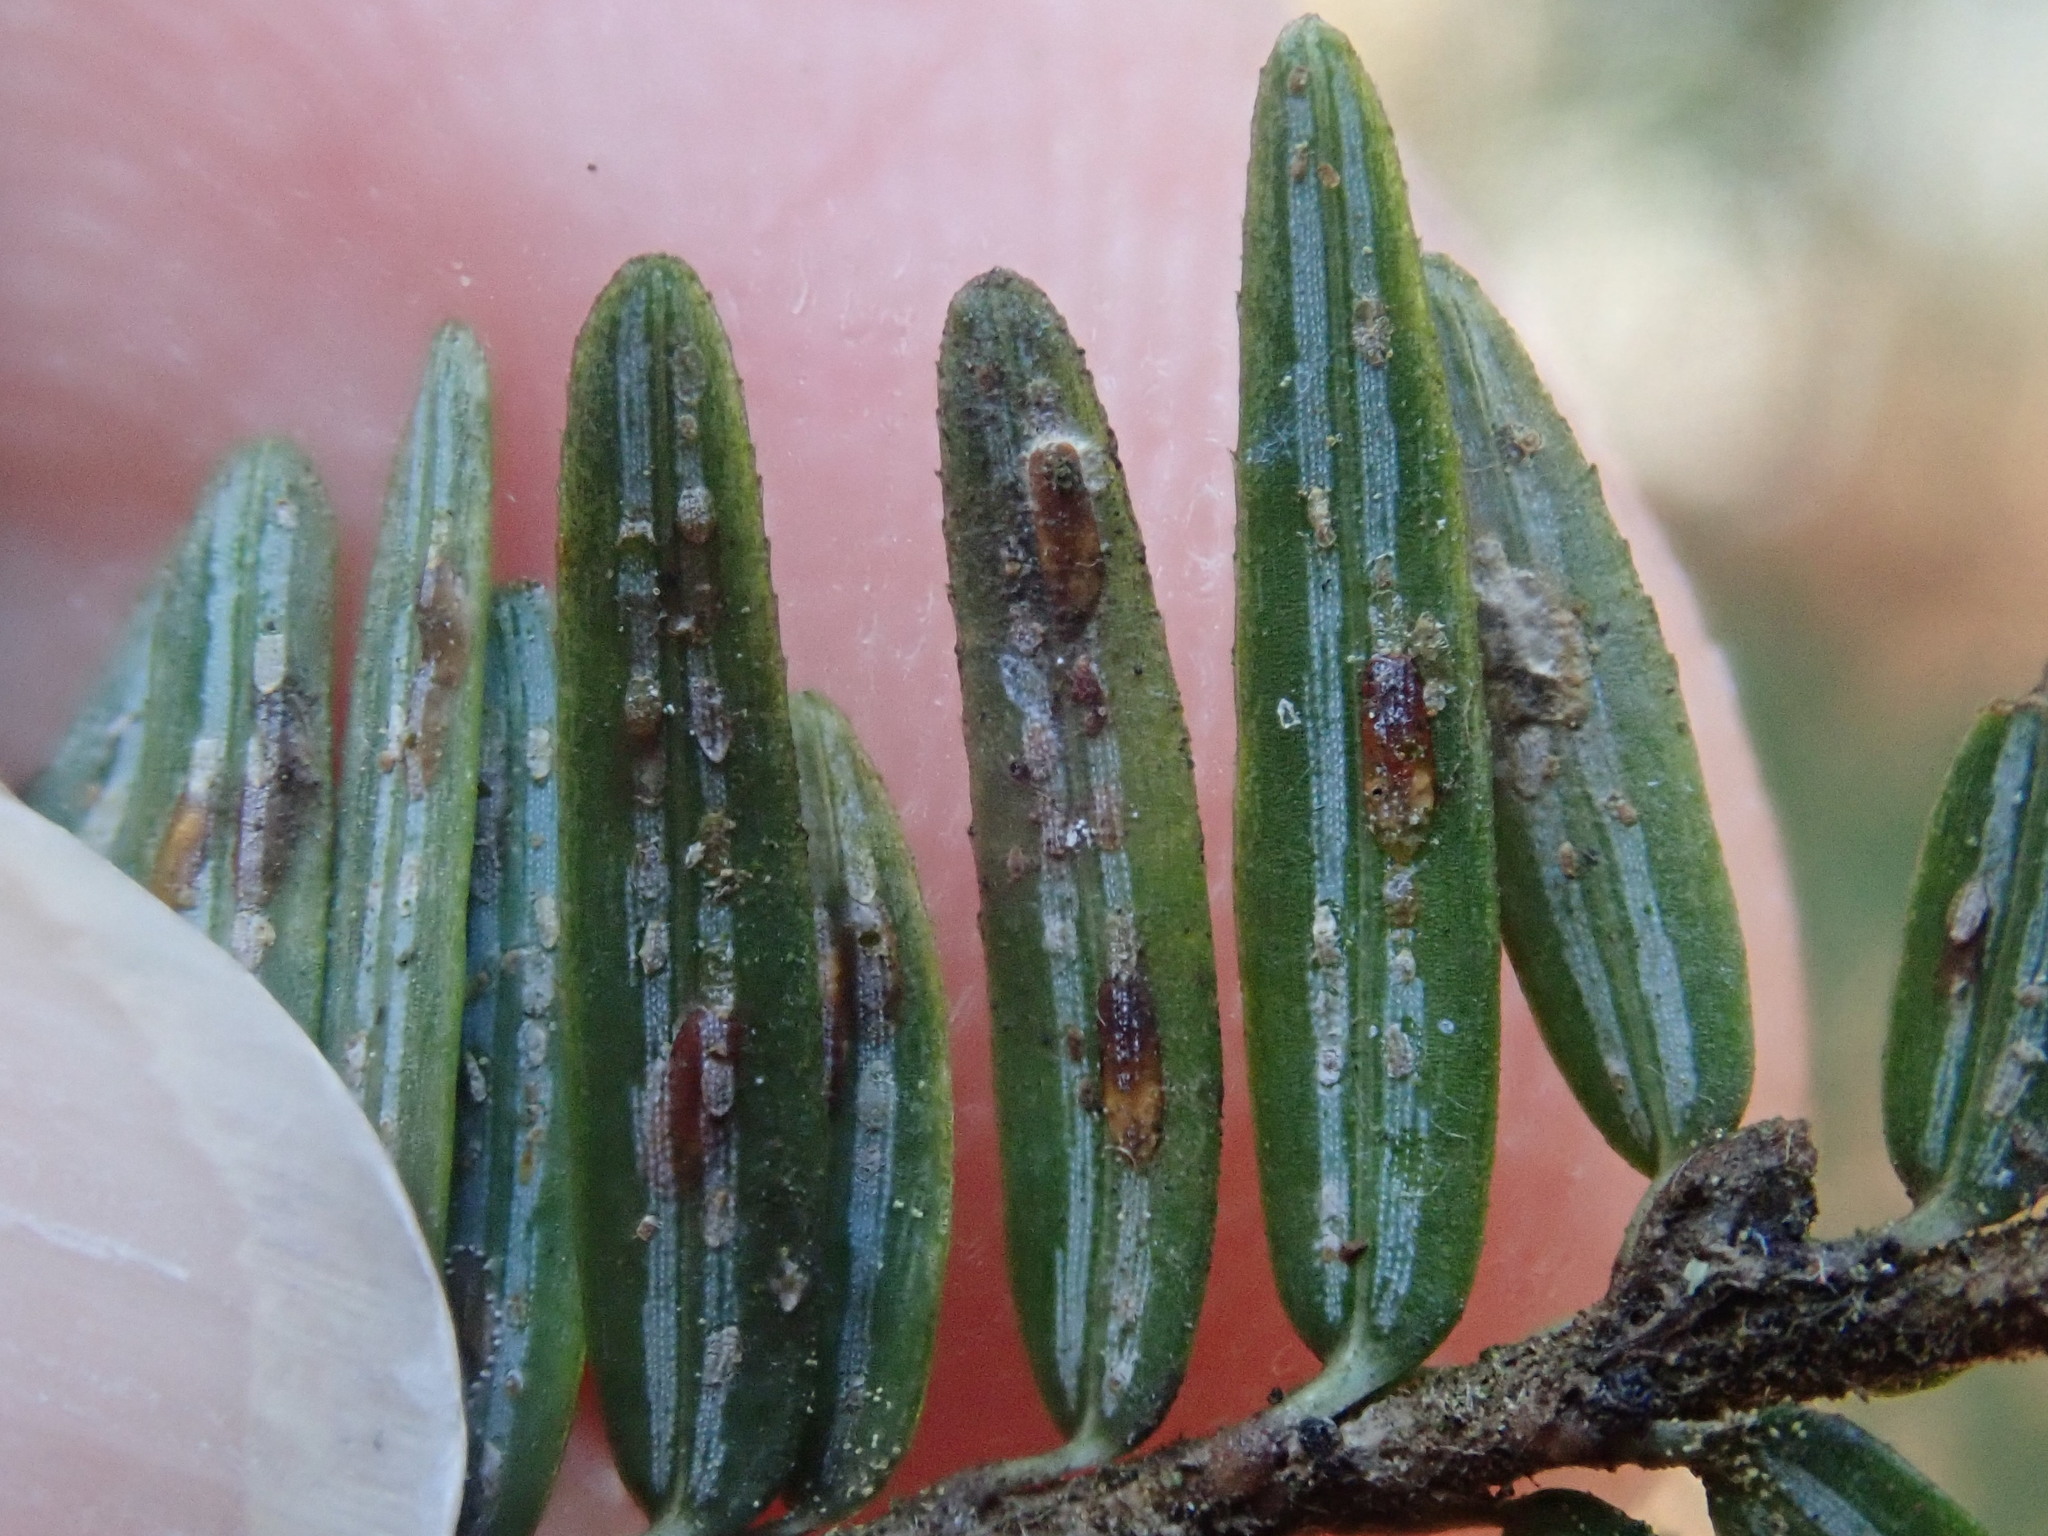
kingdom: Animalia
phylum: Arthropoda
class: Insecta
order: Hemiptera
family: Diaspididae
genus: Fiorinia
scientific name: Fiorinia externa
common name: Elongate hemlock scale
